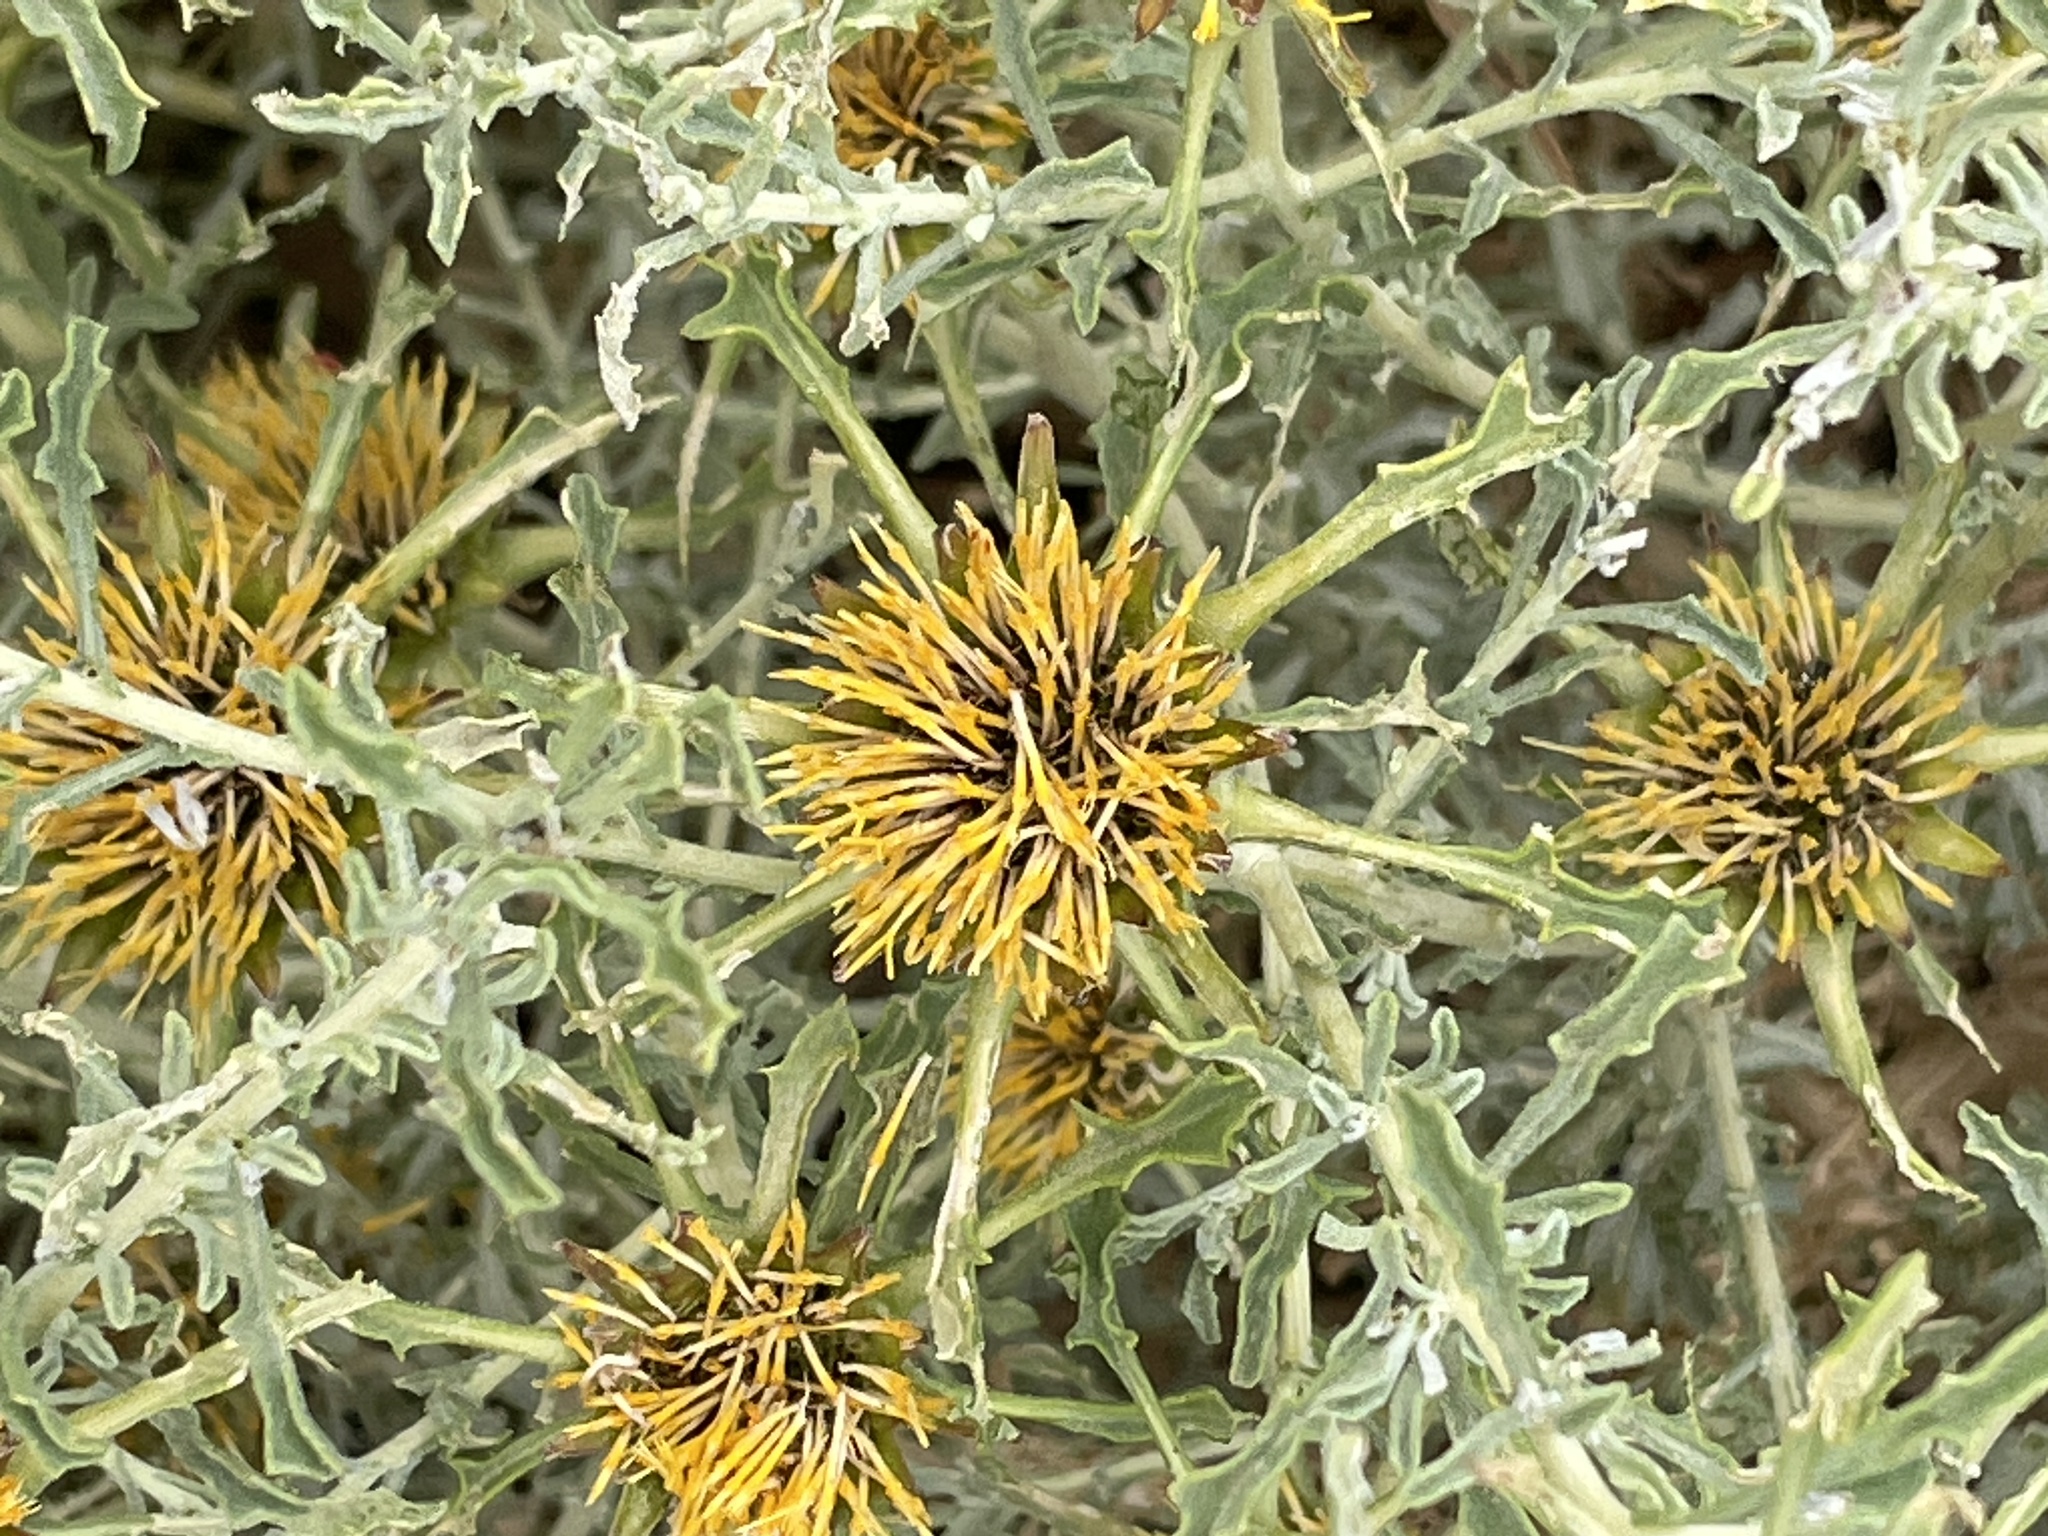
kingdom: Plantae
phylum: Tracheophyta
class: Magnoliopsida
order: Asterales
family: Asteraceae
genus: Anvillea
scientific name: Anvillea garcinii
